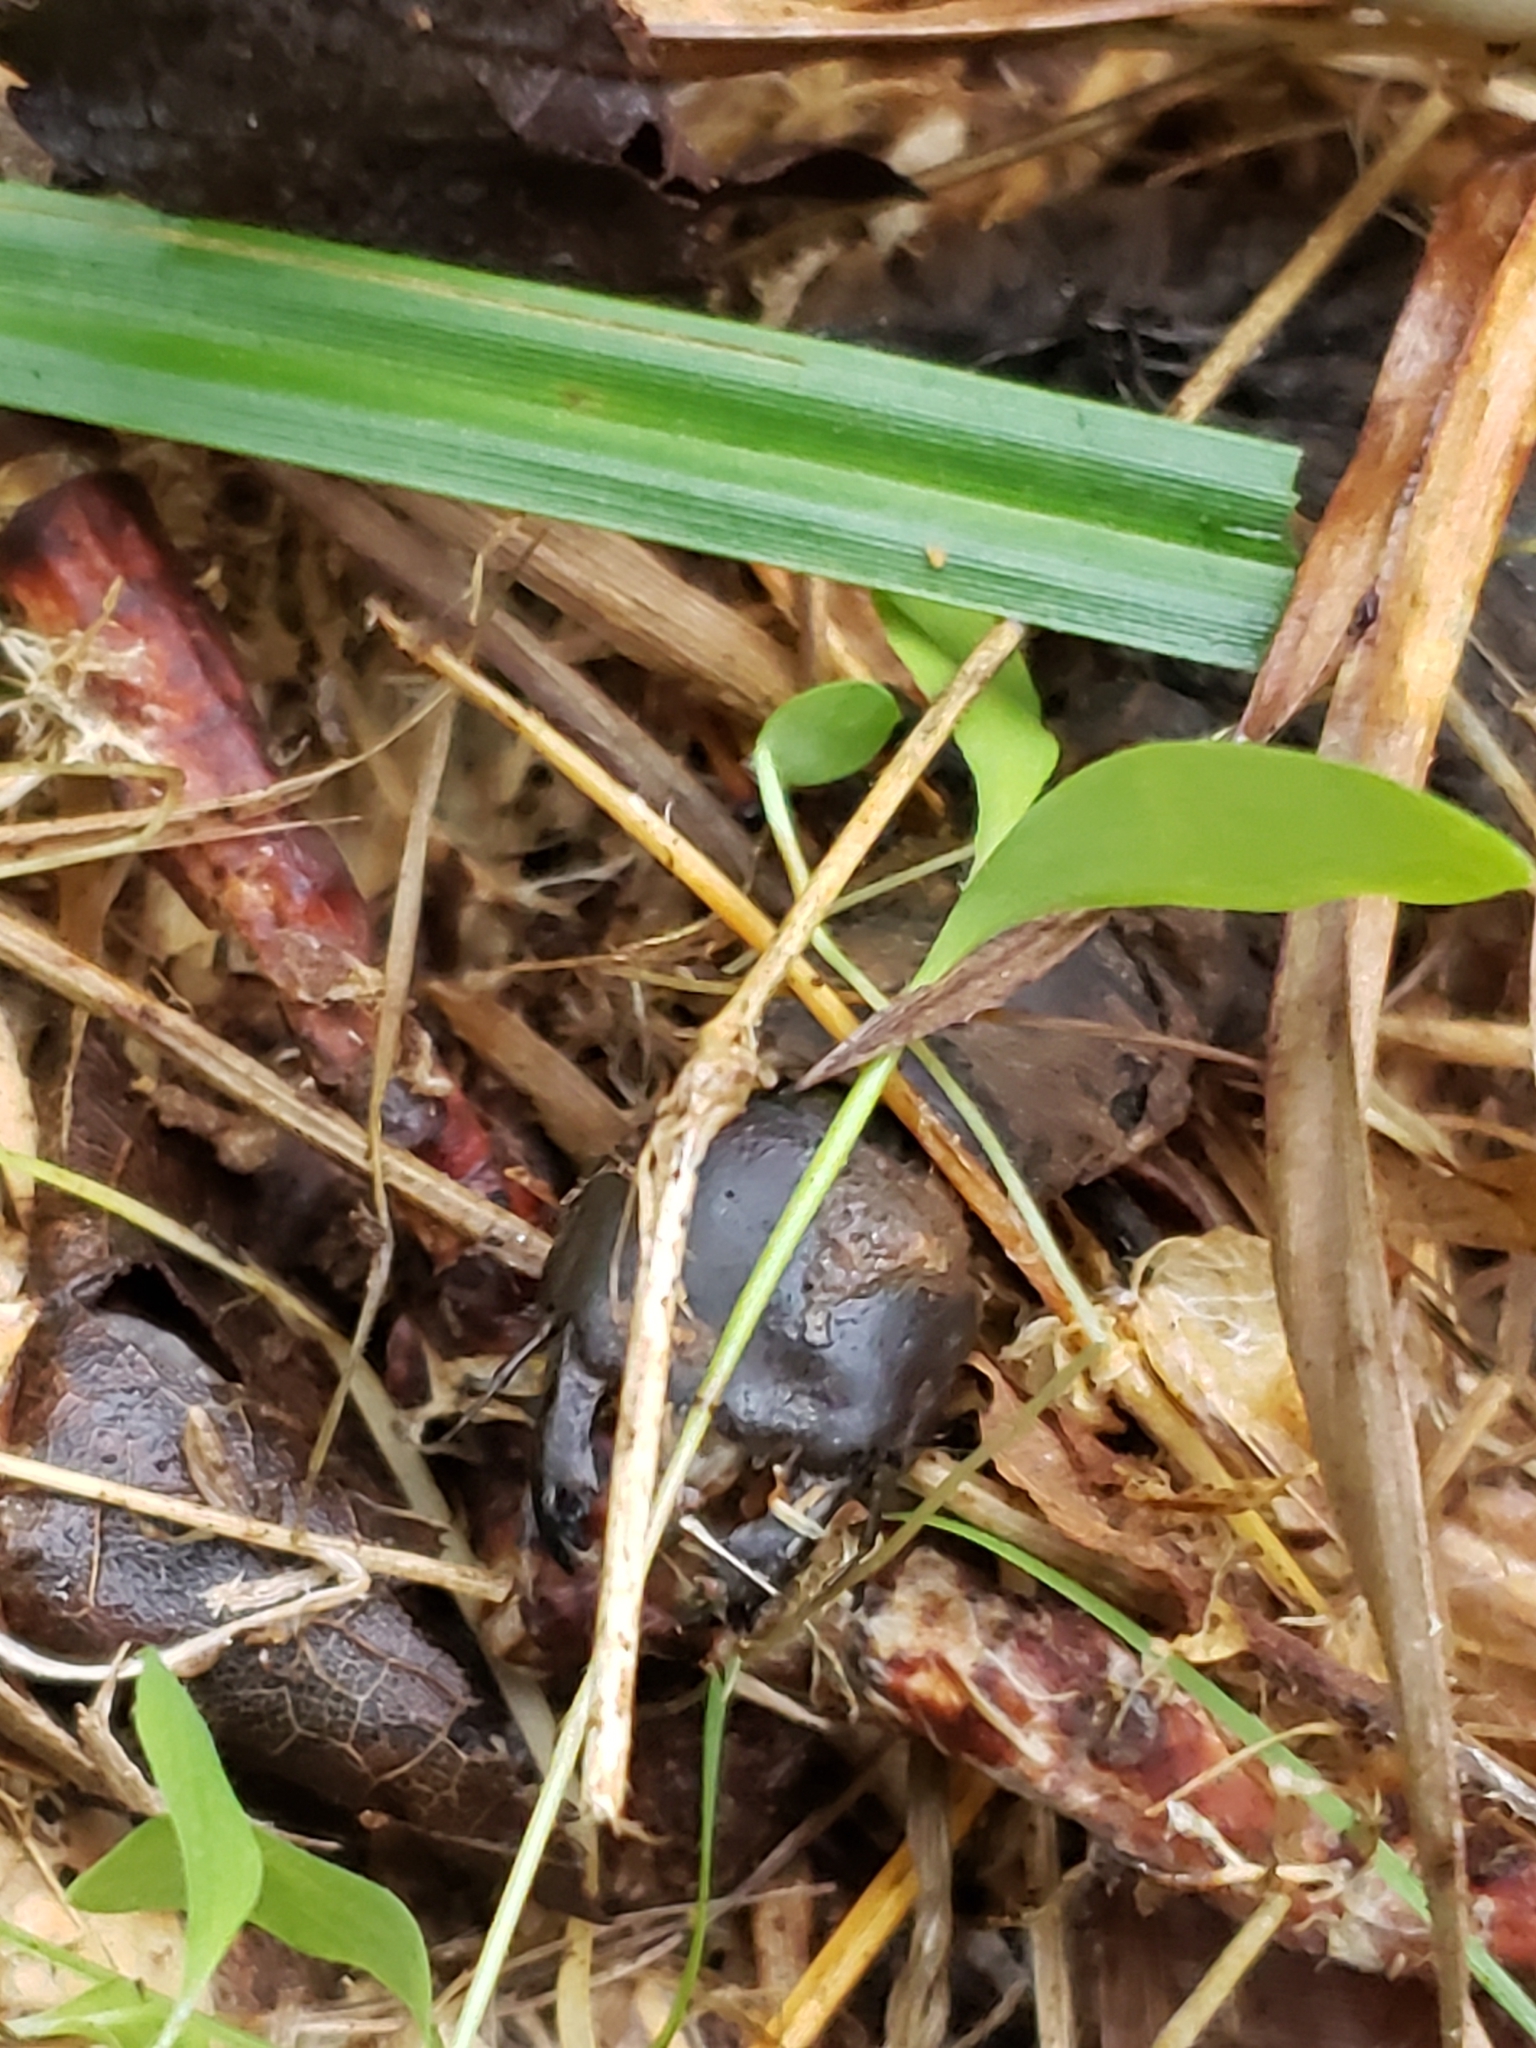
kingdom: Animalia
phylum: Arthropoda
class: Insecta
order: Megaloptera
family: Corydalidae
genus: Corydalus
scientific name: Corydalus cornutus
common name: Dobsonfly
